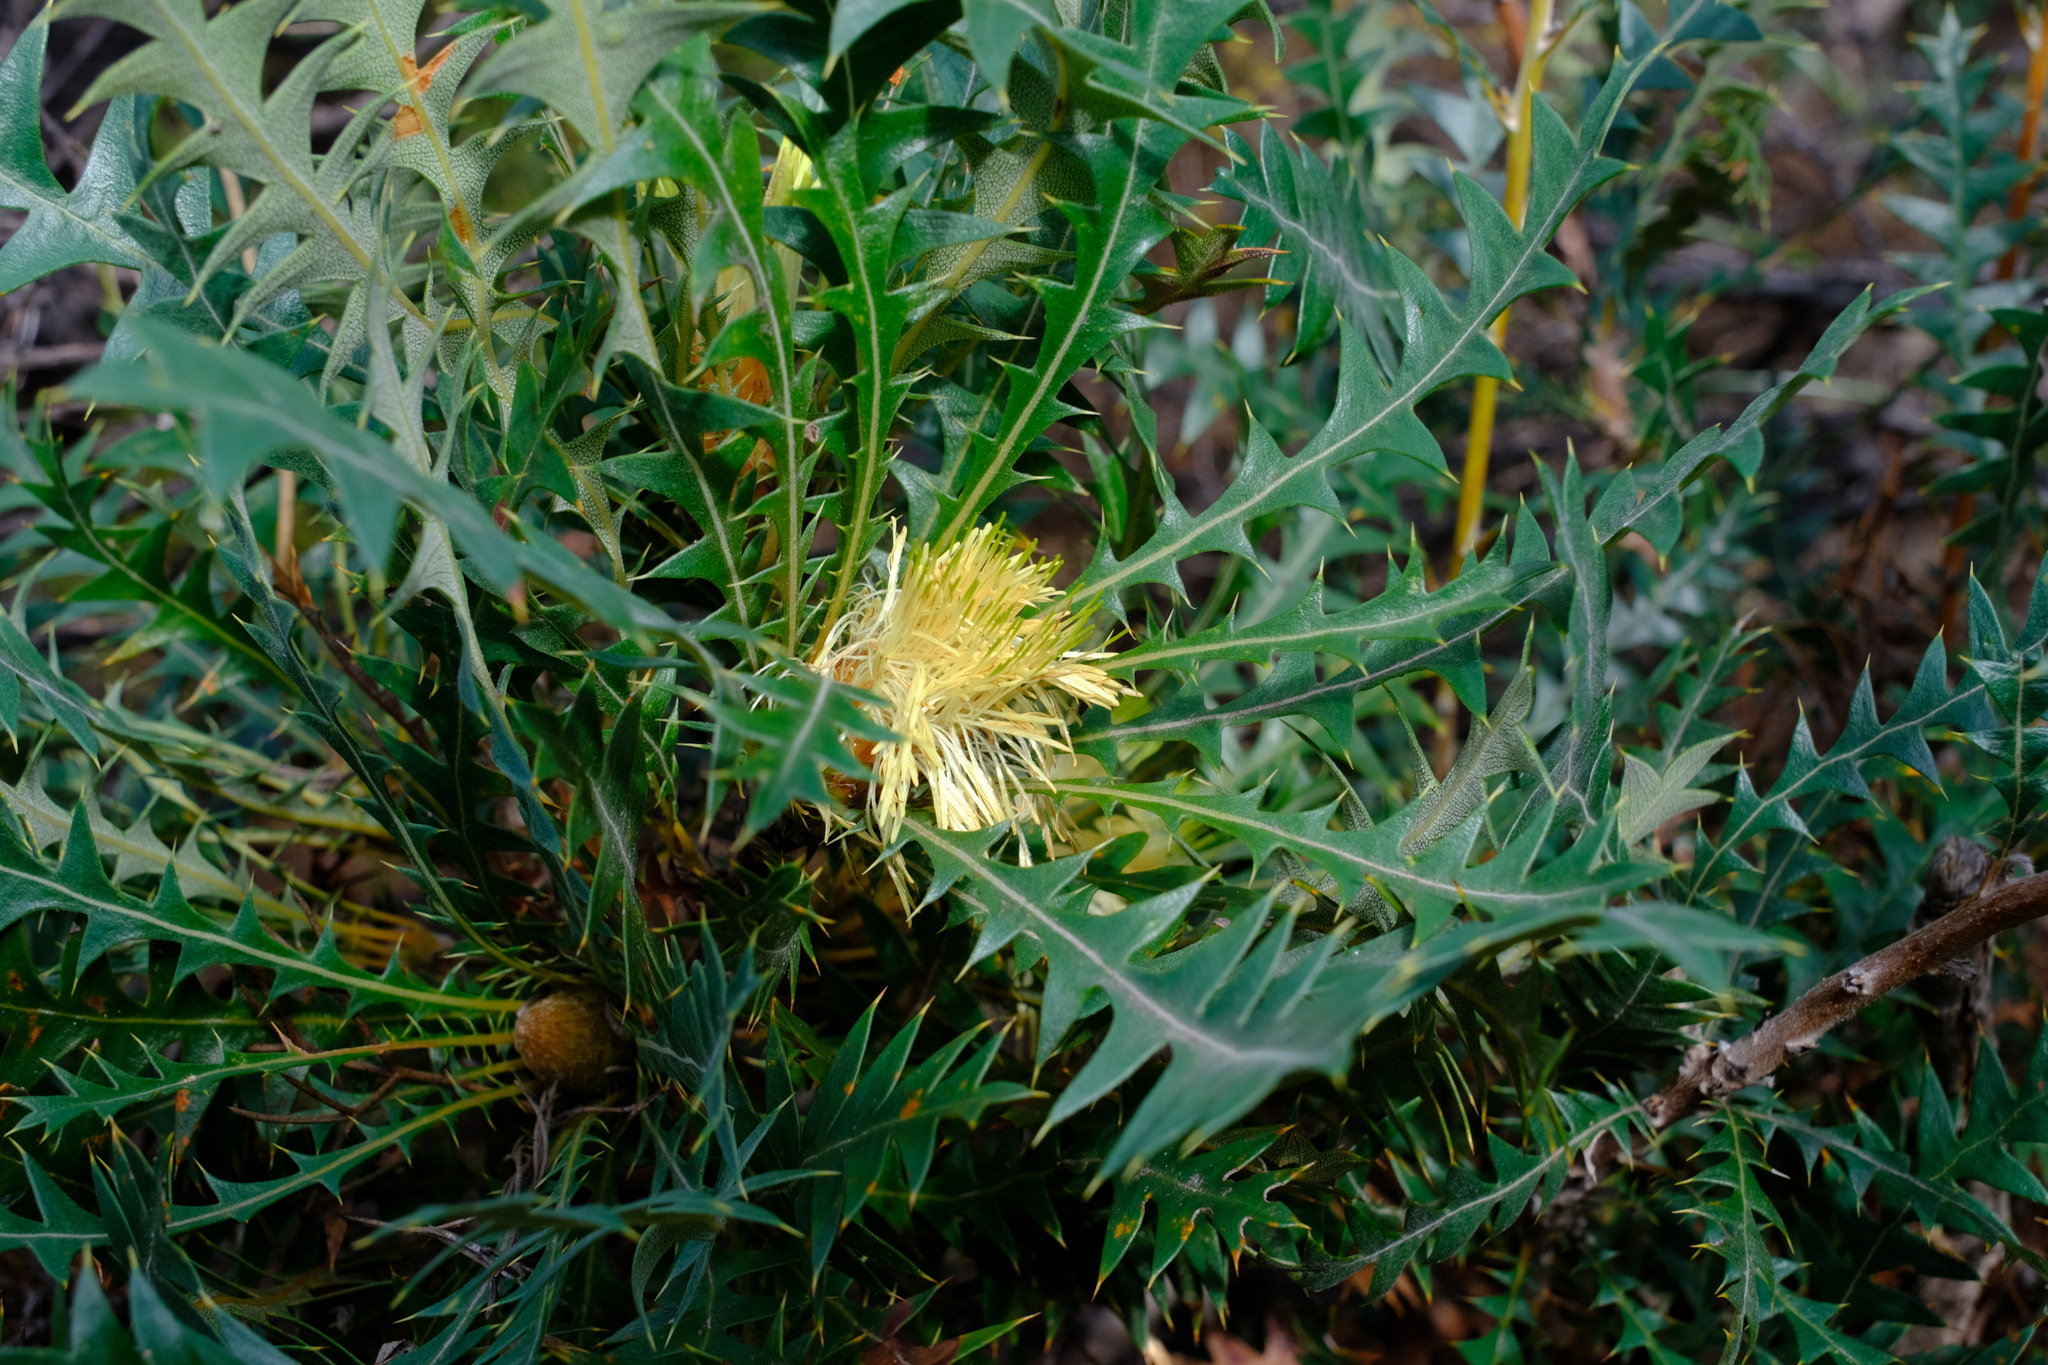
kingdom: Plantae
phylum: Tracheophyta
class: Magnoliopsida
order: Proteales
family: Proteaceae
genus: Banksia
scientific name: Banksia armata
